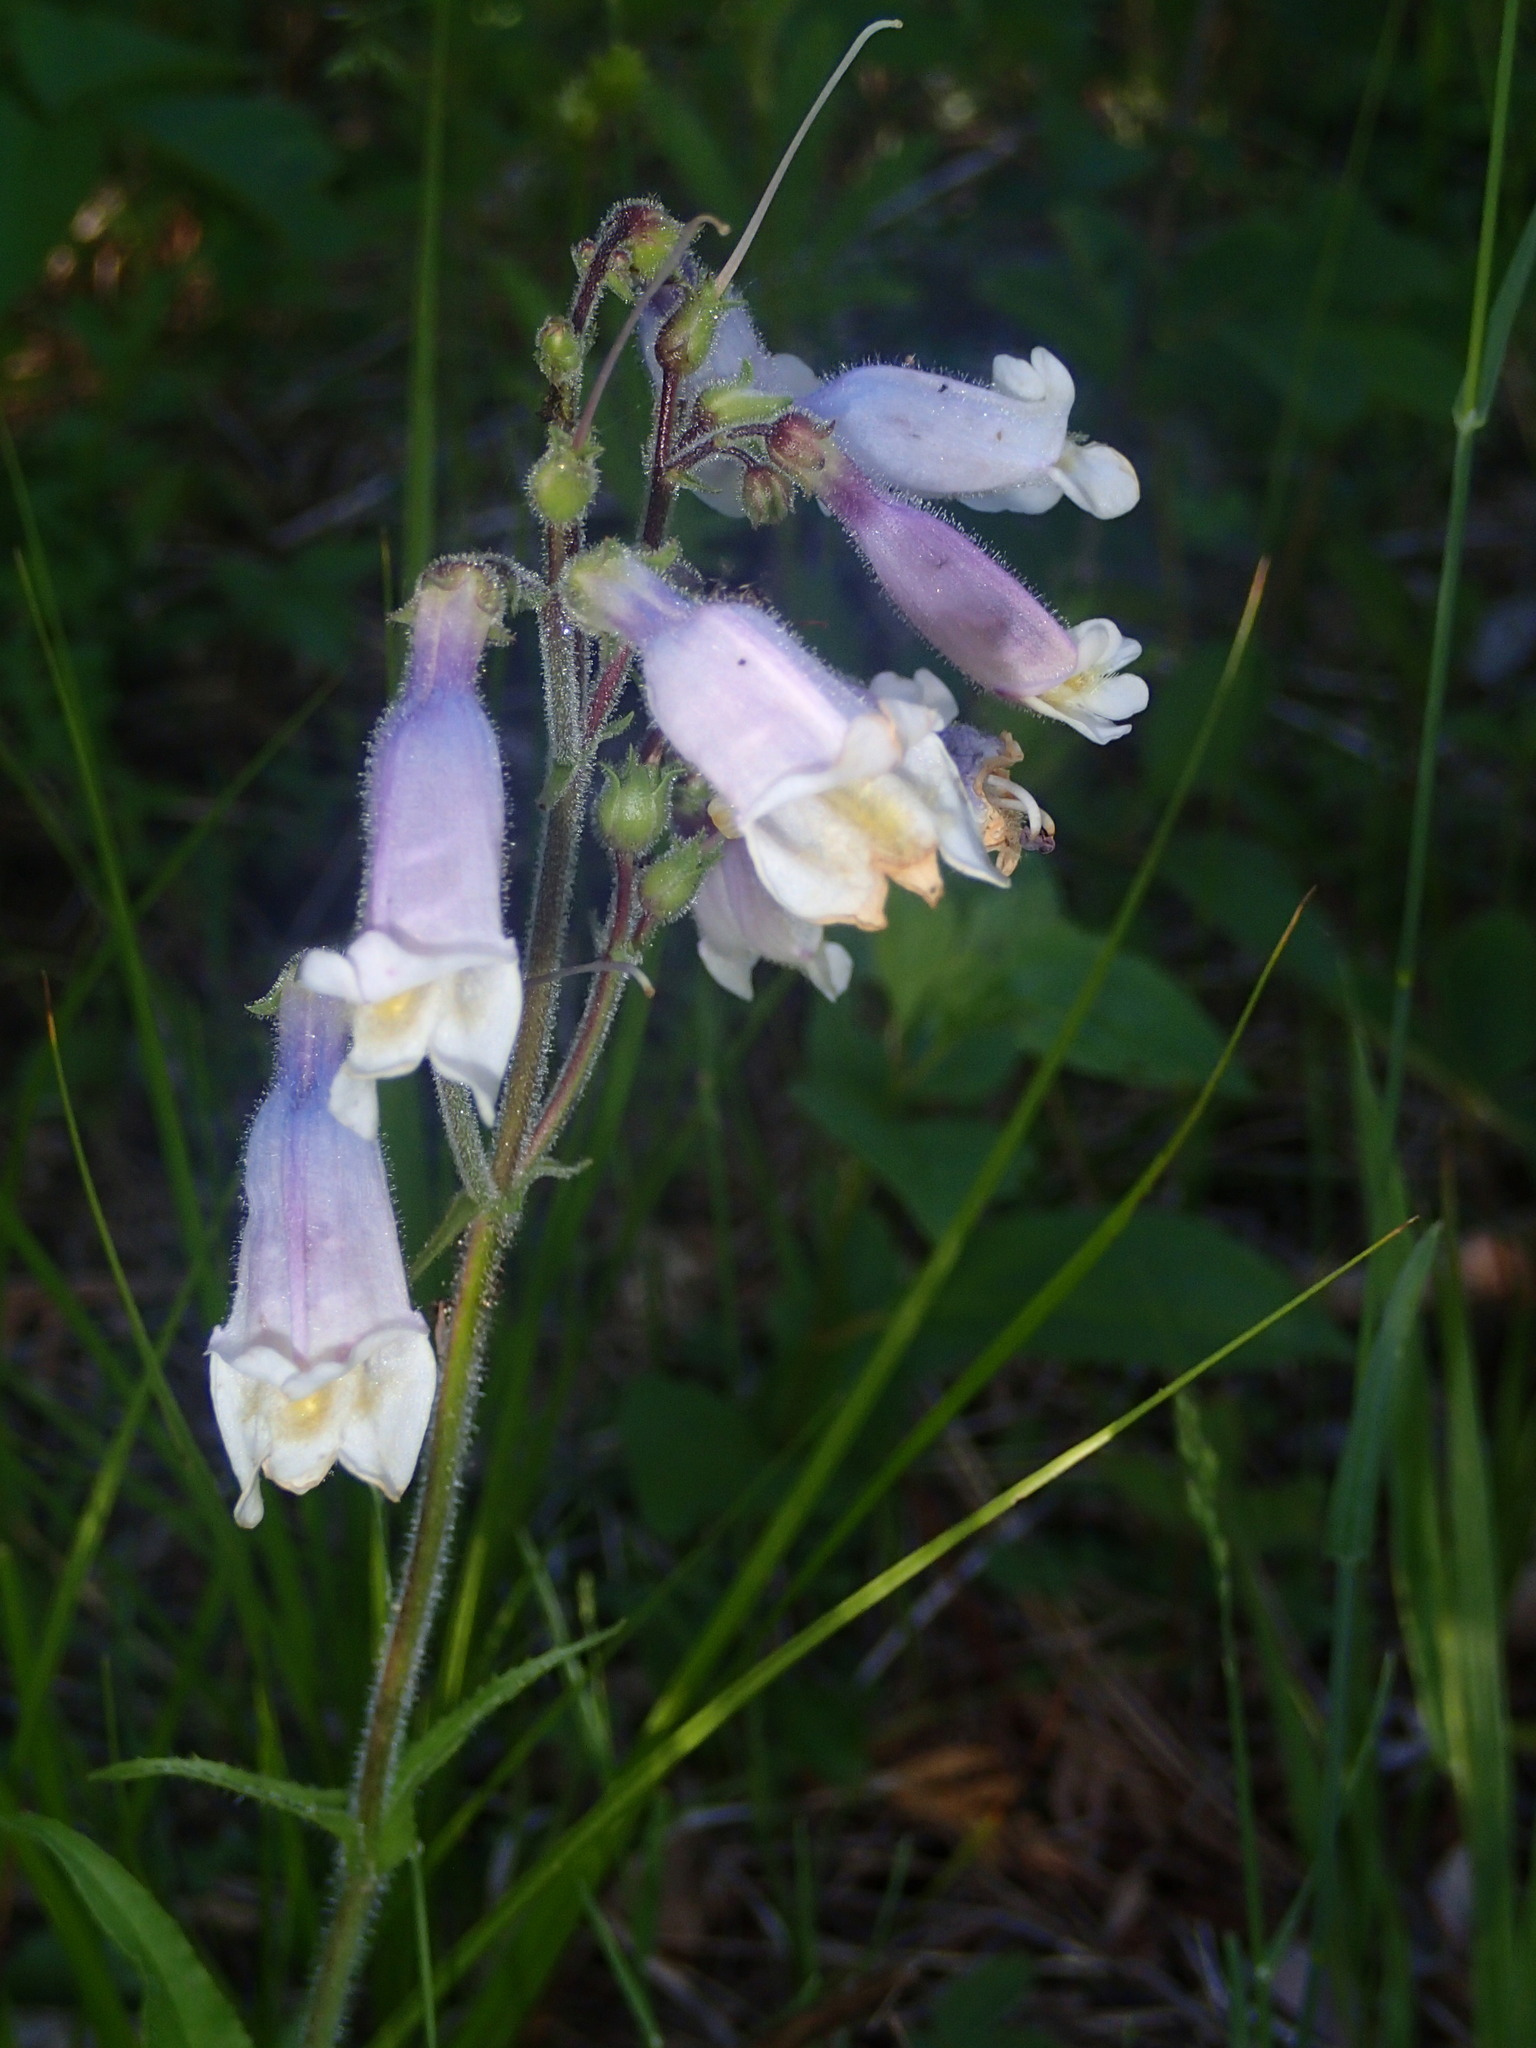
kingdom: Plantae
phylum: Tracheophyta
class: Magnoliopsida
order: Lamiales
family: Plantaginaceae
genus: Penstemon
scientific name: Penstemon hirsutus
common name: Hairy beardtongue
